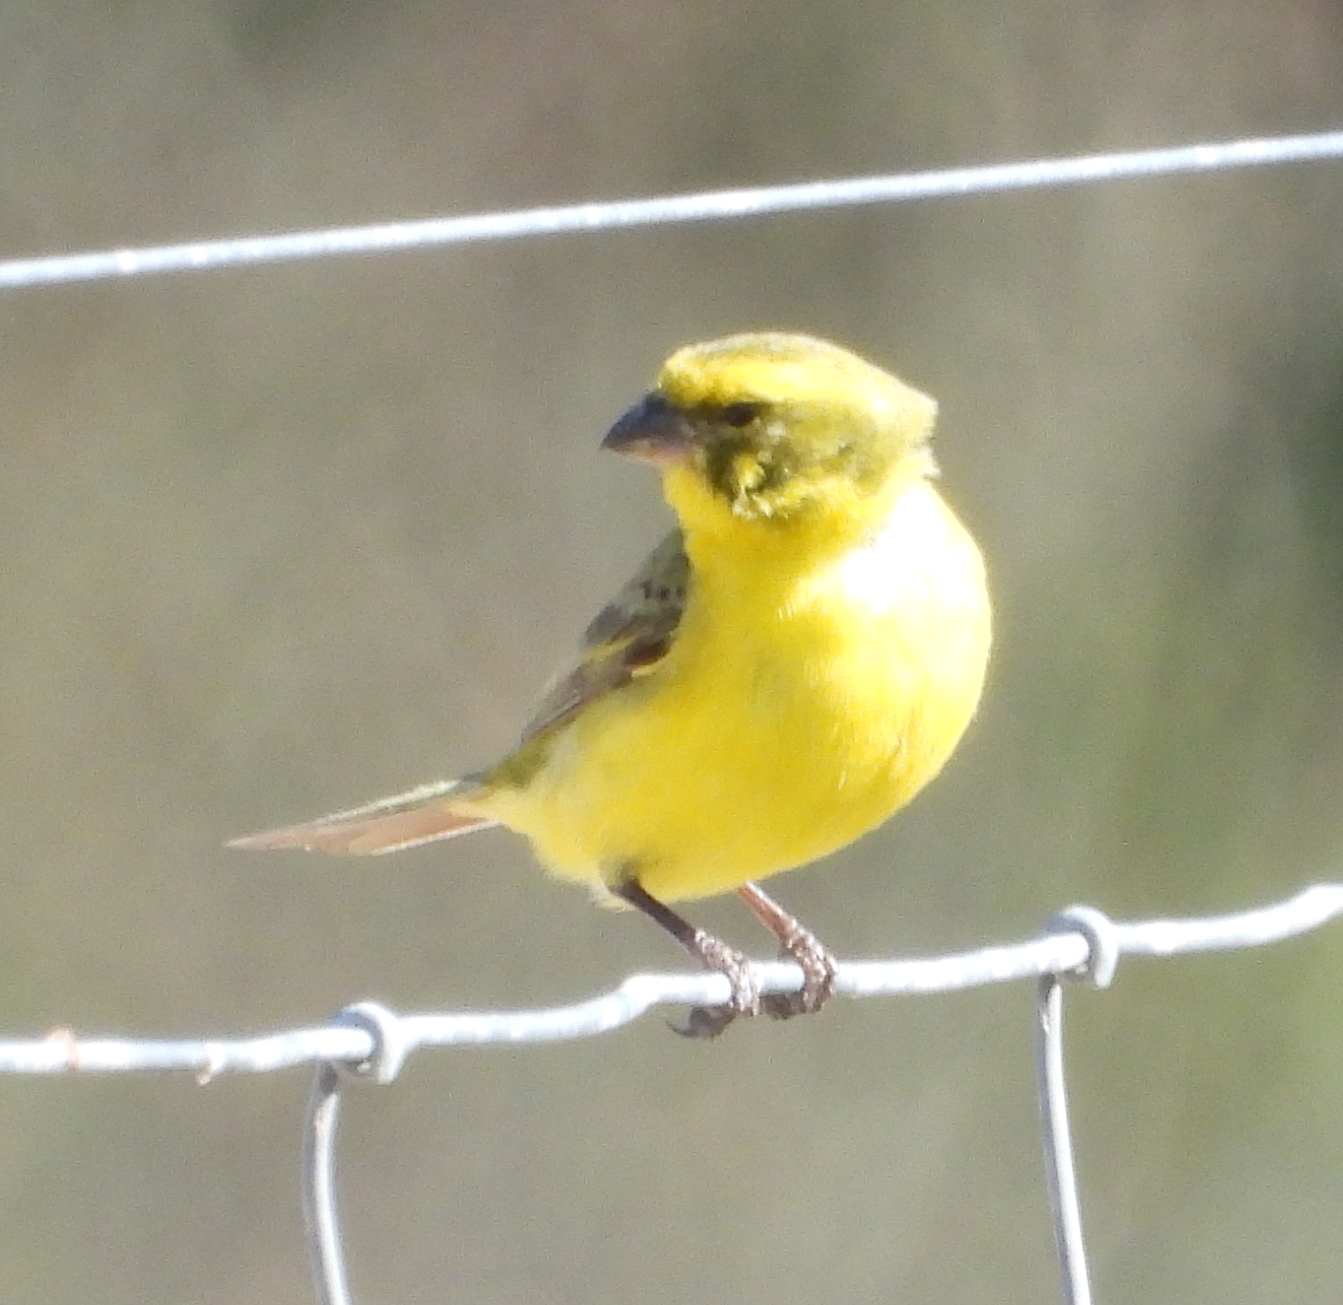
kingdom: Animalia
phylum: Chordata
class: Aves
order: Passeriformes
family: Fringillidae
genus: Crithagra
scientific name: Crithagra flaviventris
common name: Yellow canary
